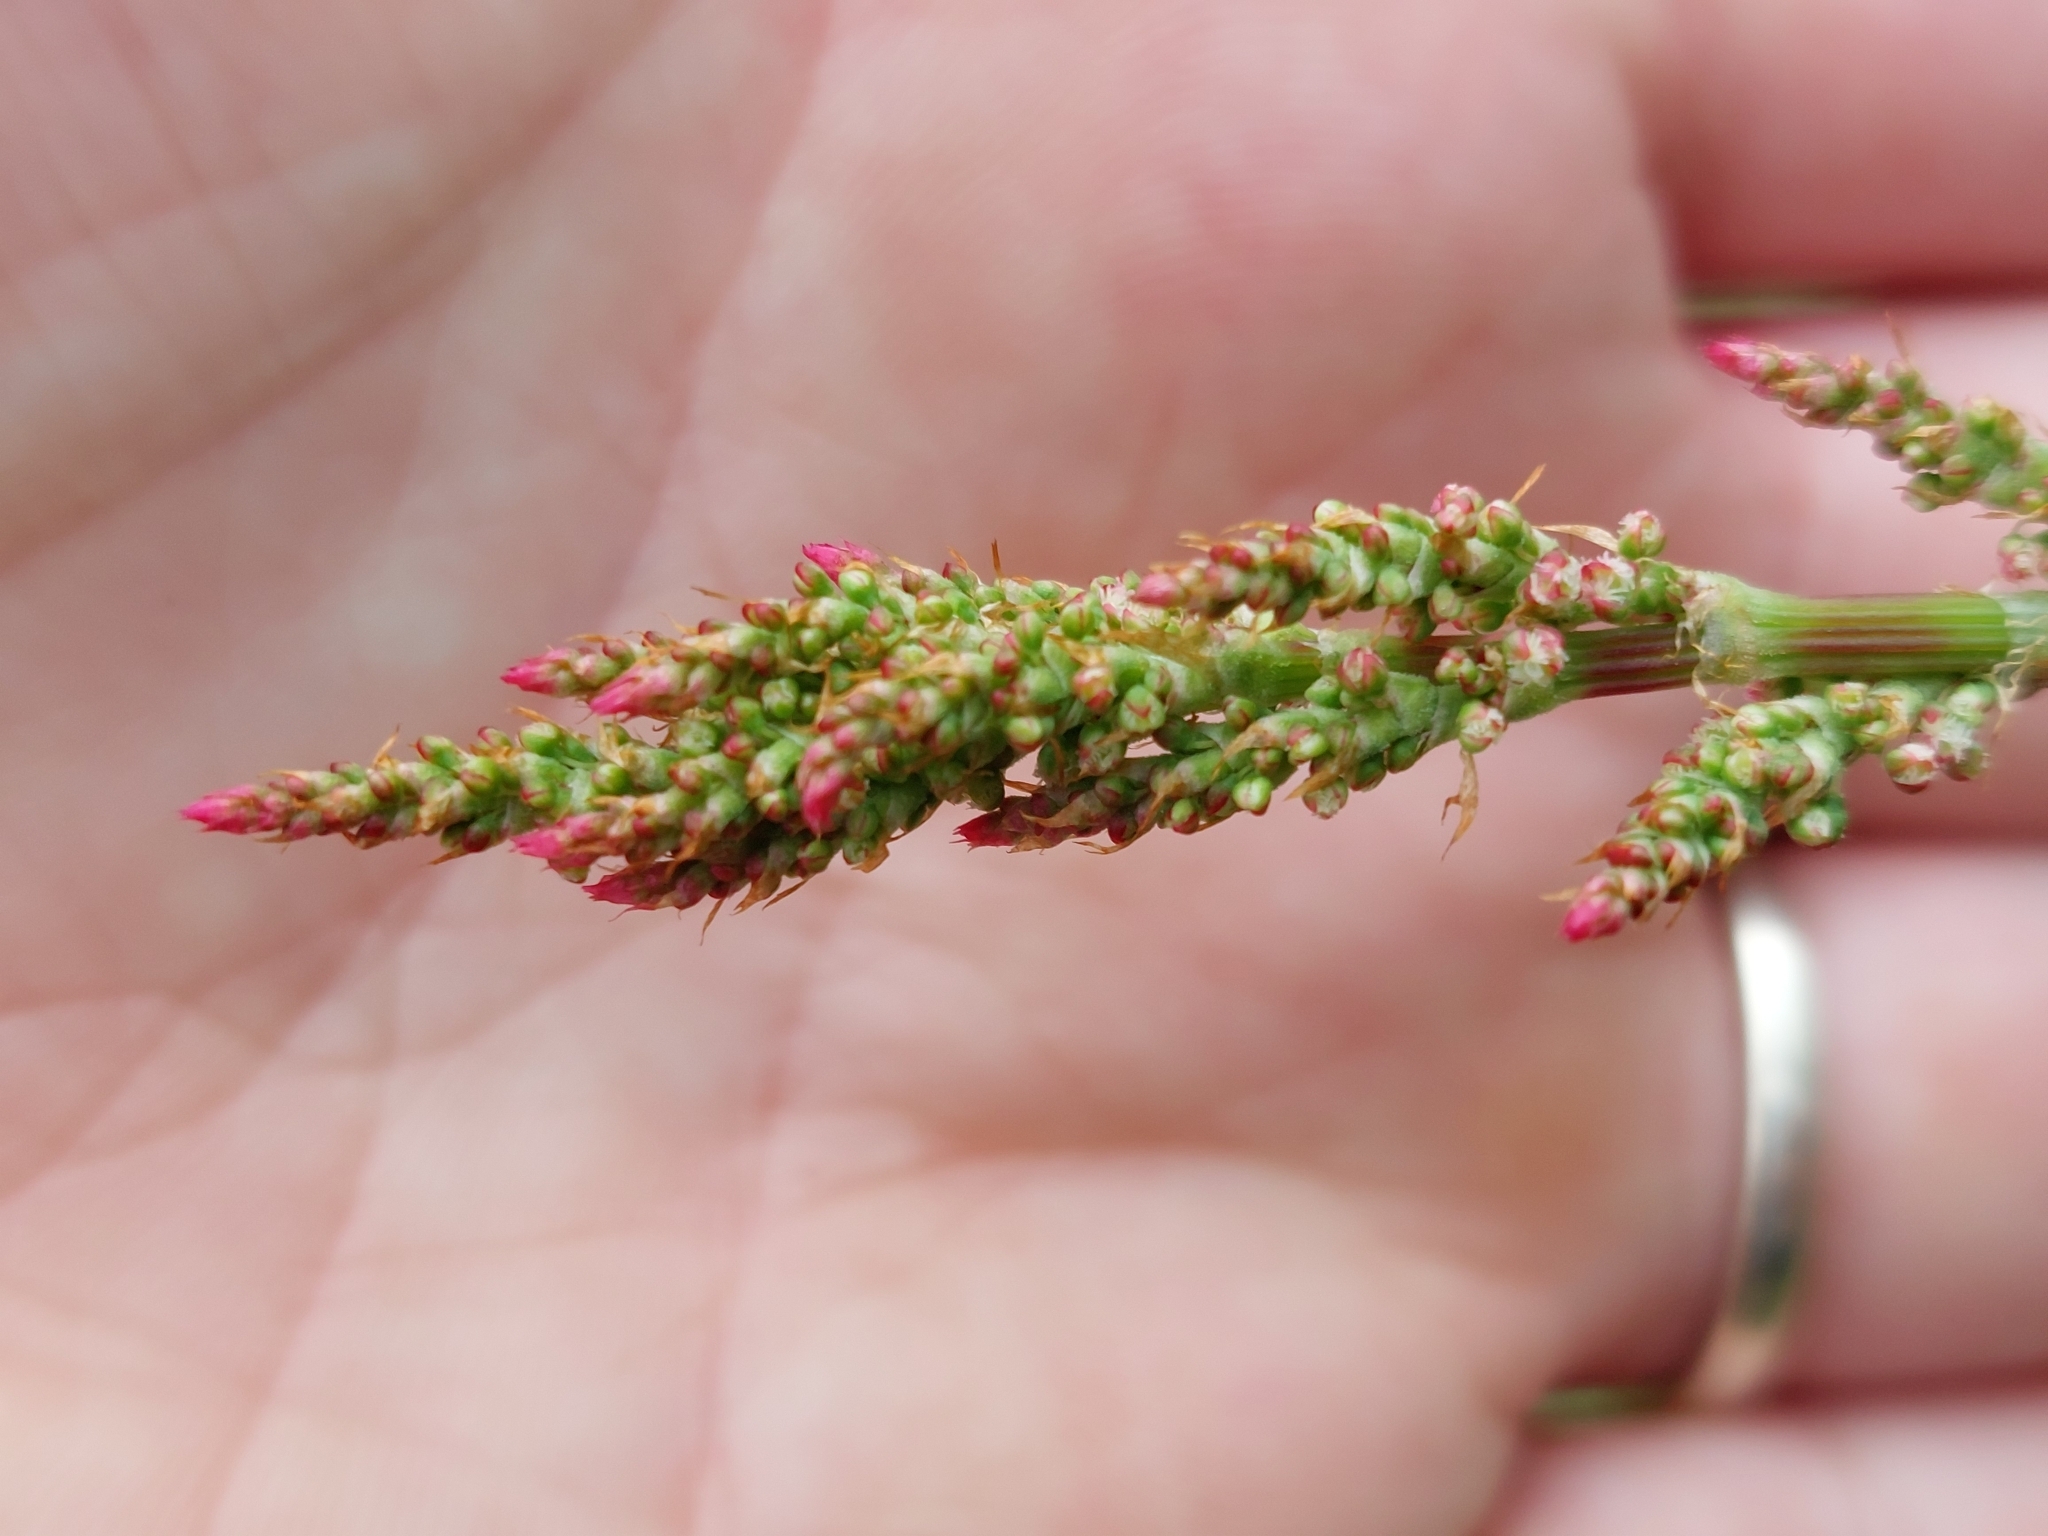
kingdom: Plantae
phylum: Tracheophyta
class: Magnoliopsida
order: Caryophyllales
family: Polygonaceae
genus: Rumex
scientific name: Rumex acetosa
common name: Garden sorrel
